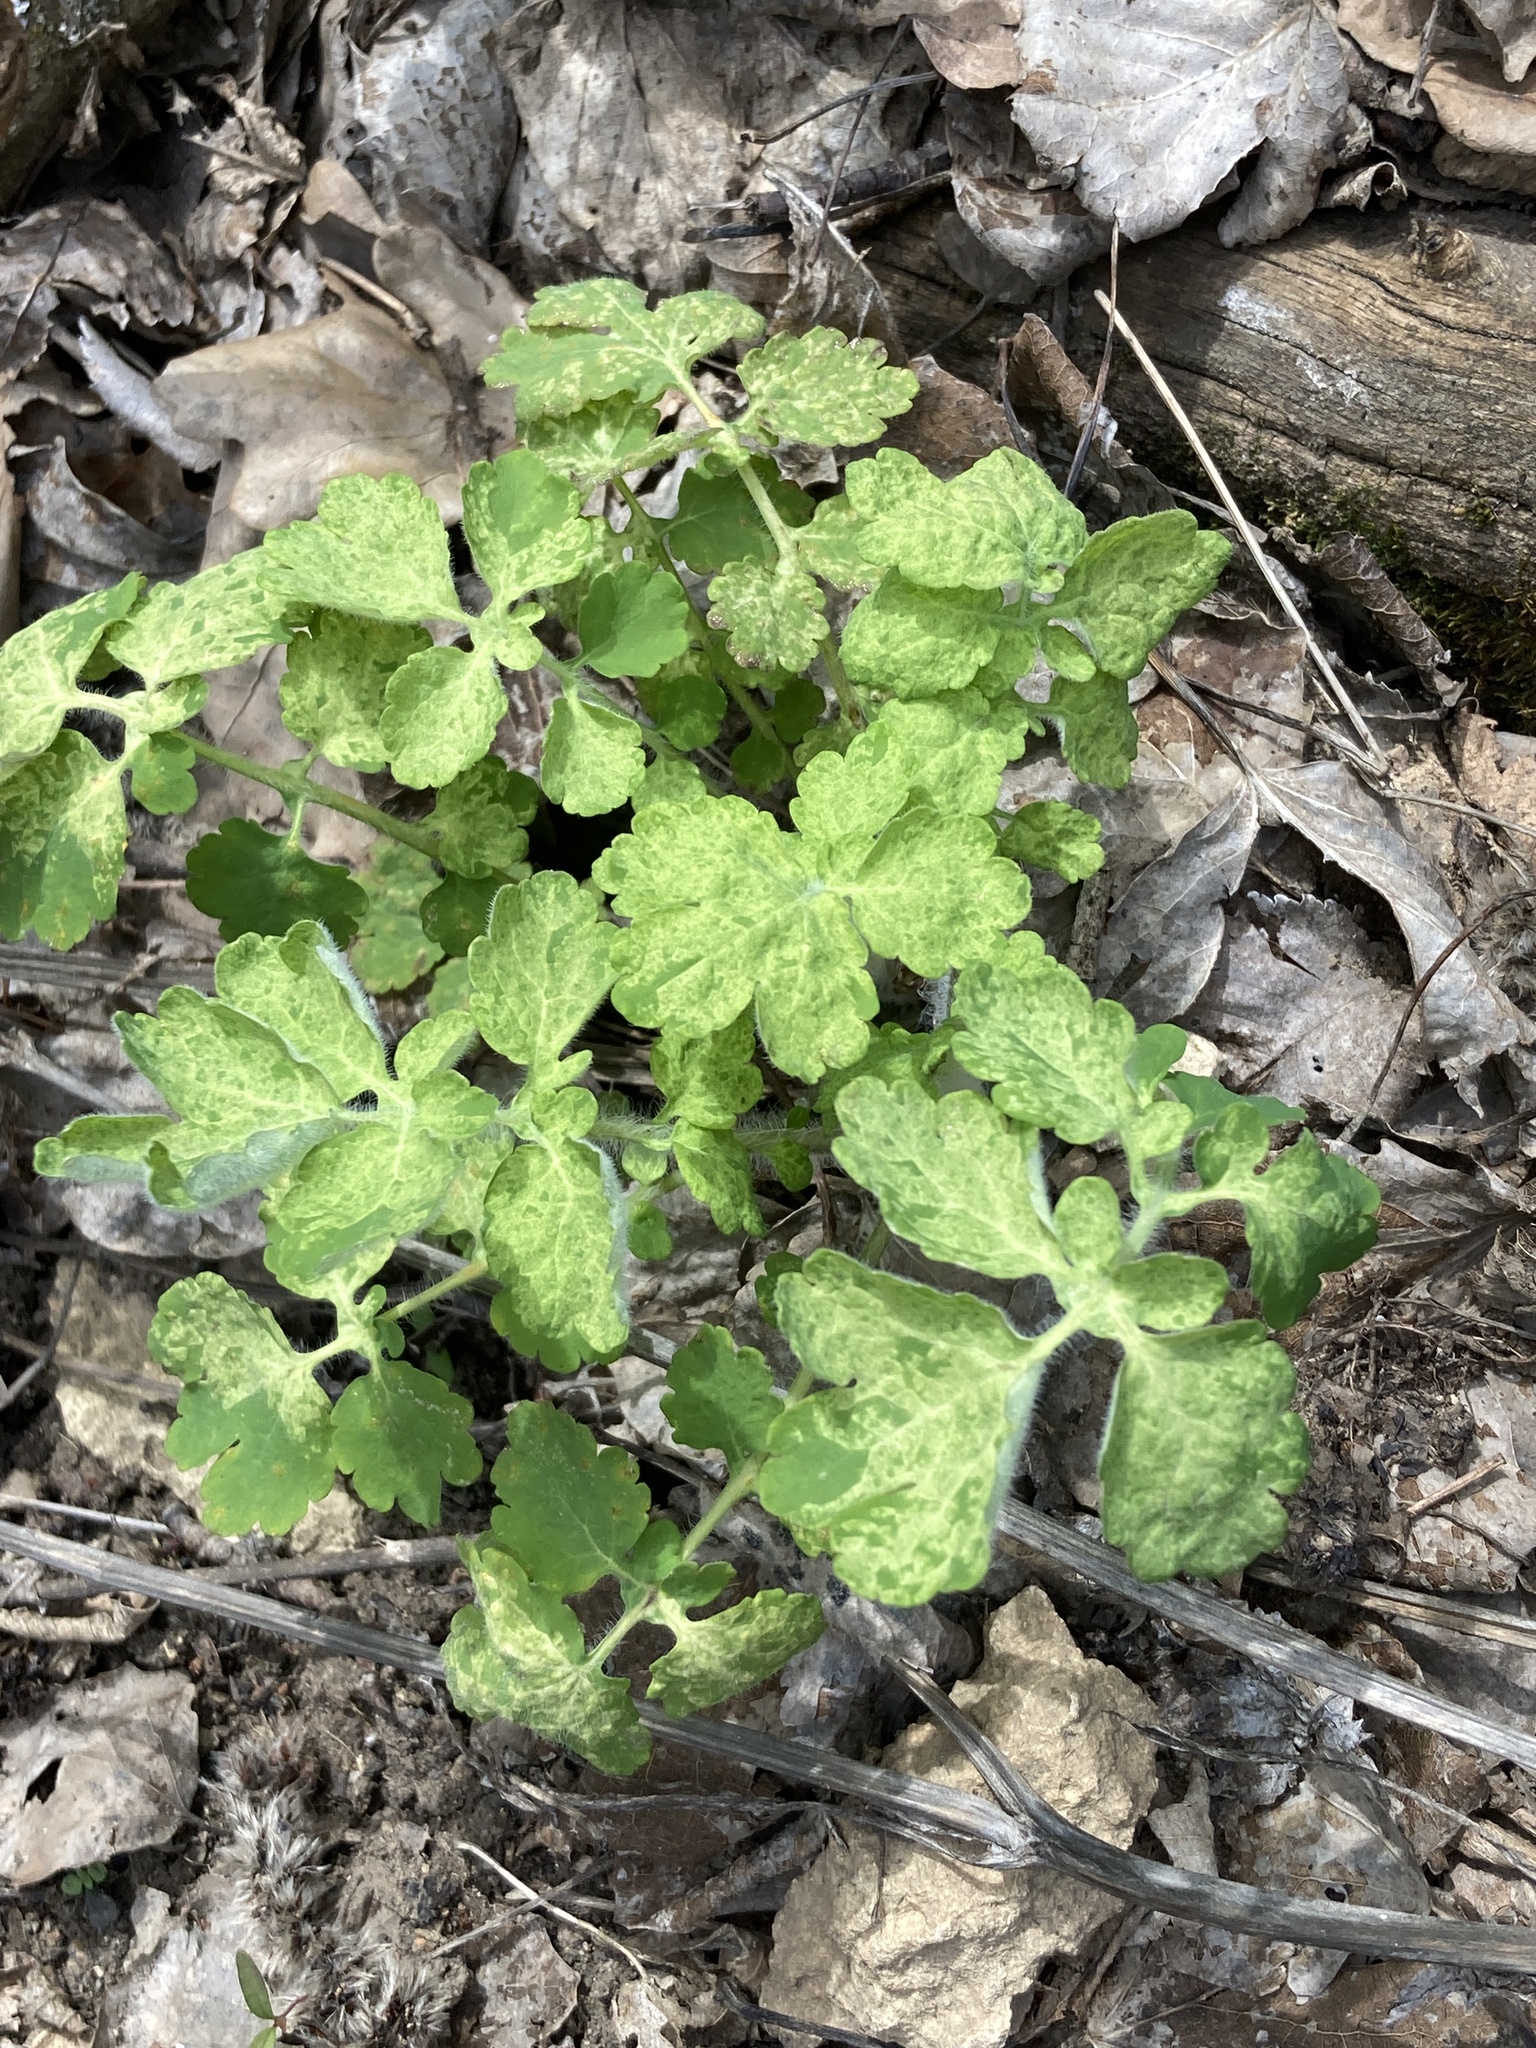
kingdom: Plantae
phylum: Tracheophyta
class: Magnoliopsida
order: Ranunculales
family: Papaveraceae
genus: Chelidonium
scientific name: Chelidonium majus
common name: Greater celandine
